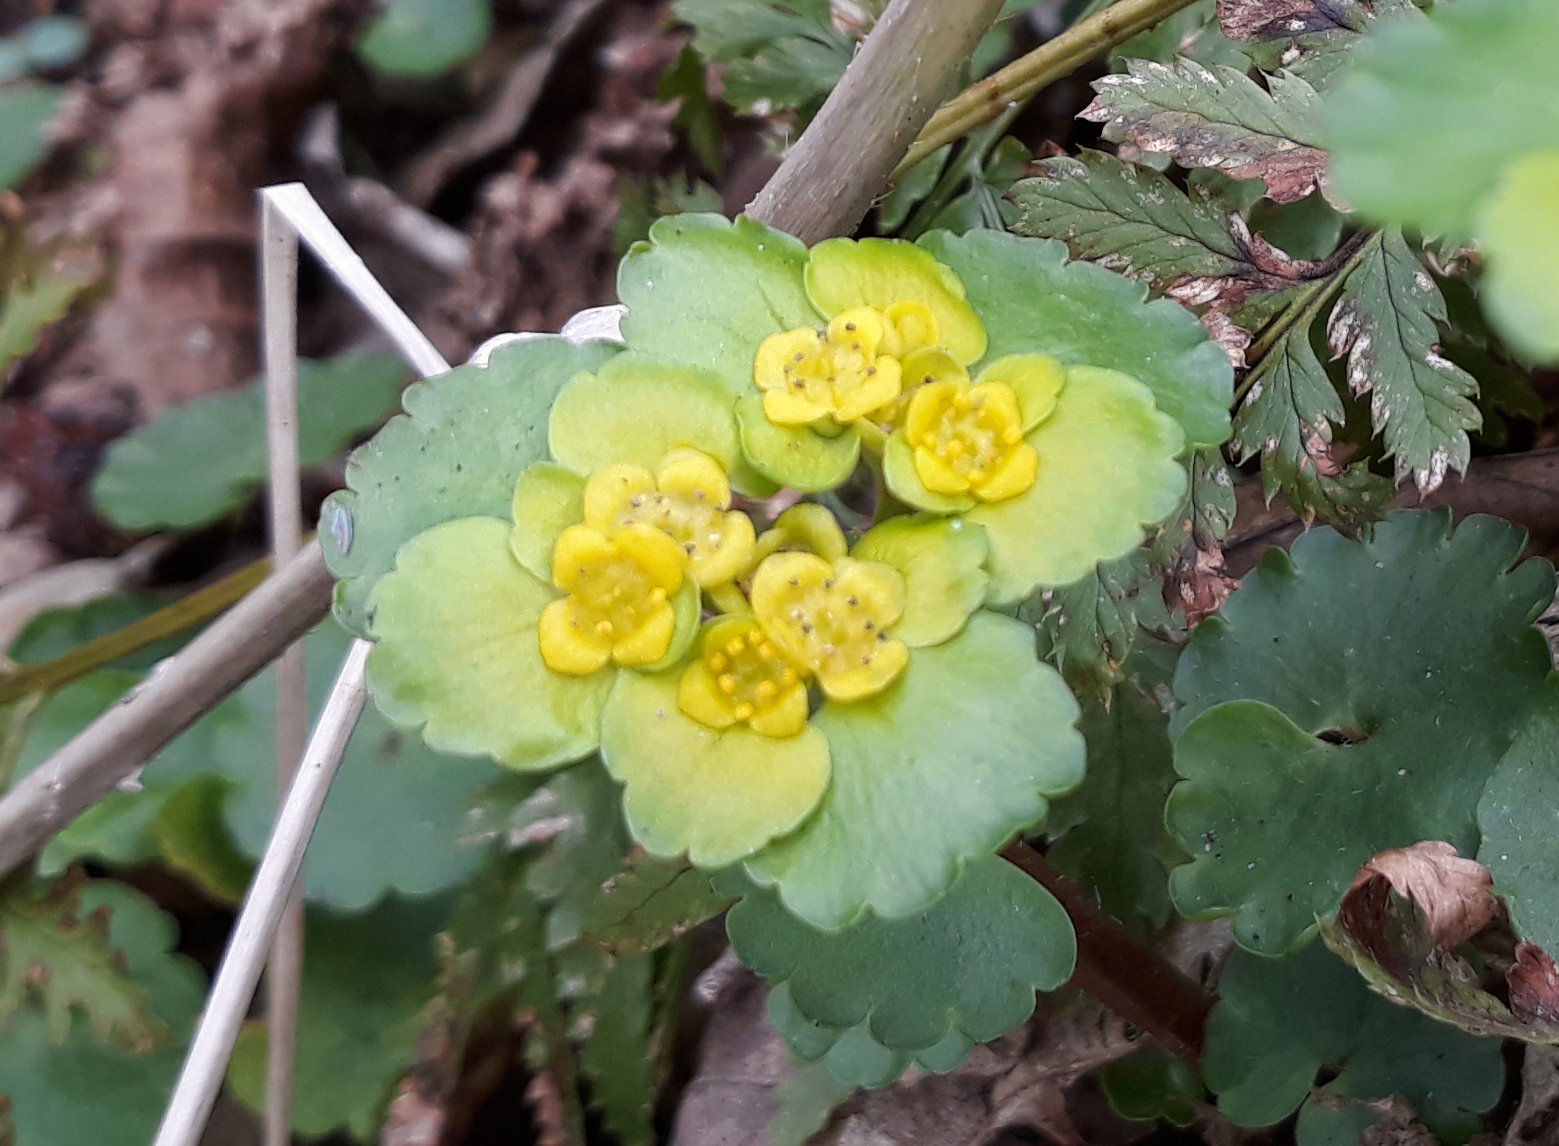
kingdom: Plantae
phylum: Tracheophyta
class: Magnoliopsida
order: Saxifragales
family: Saxifragaceae
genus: Chrysosplenium
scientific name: Chrysosplenium alternifolium
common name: Alternate-leaved golden-saxifrage
